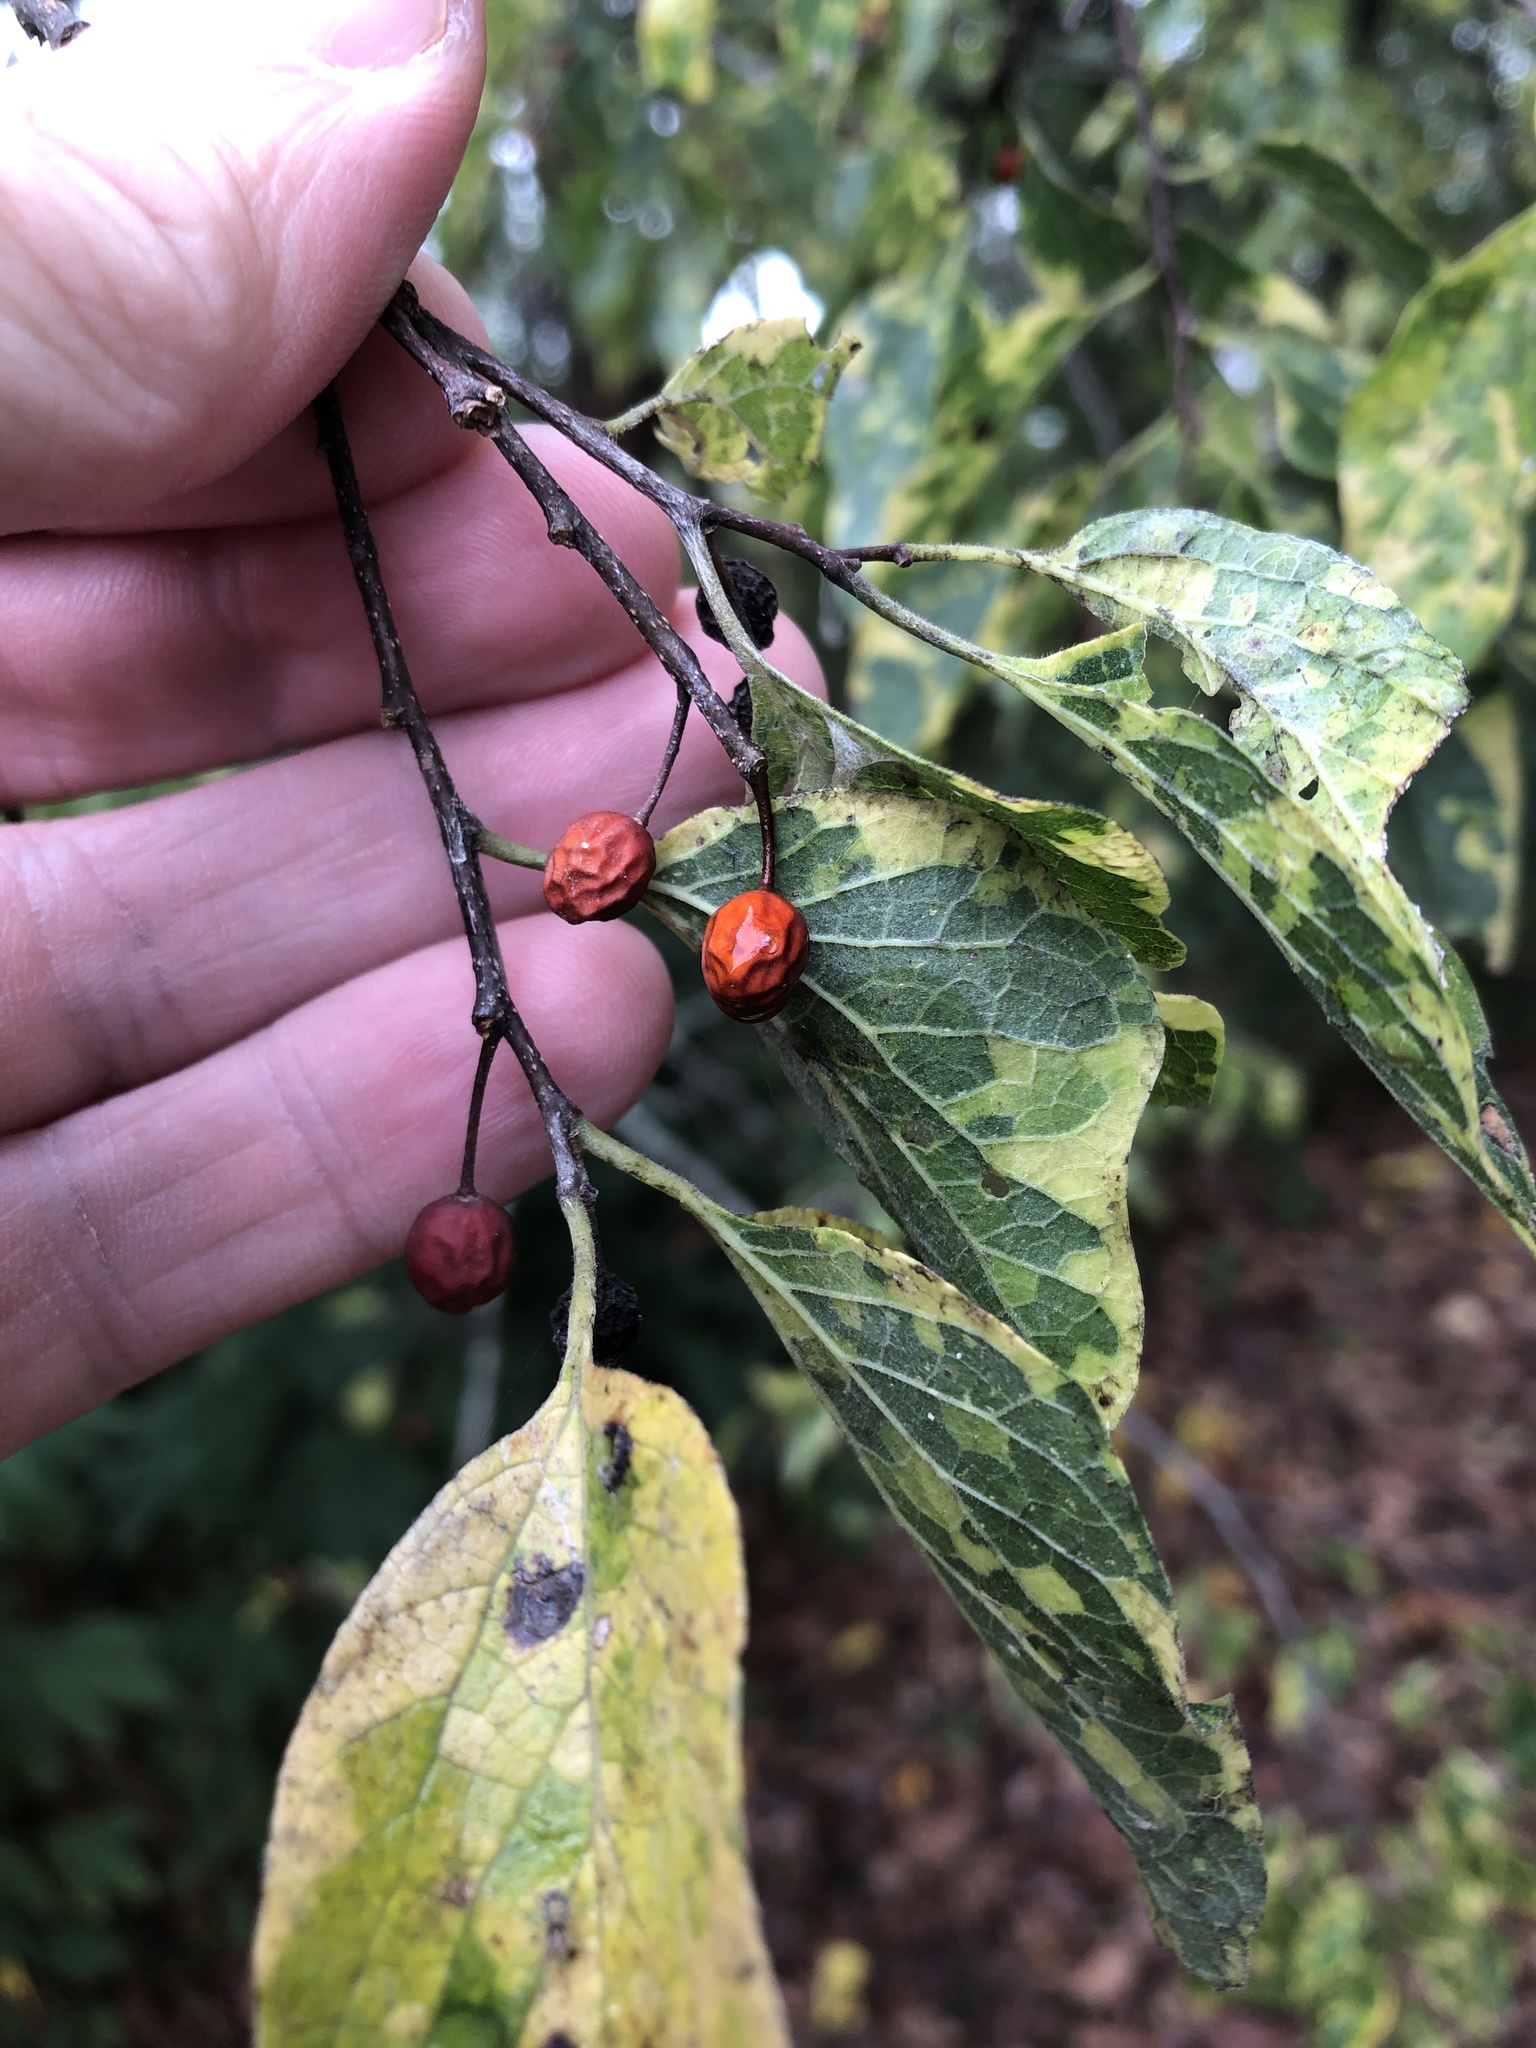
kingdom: Plantae
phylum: Tracheophyta
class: Magnoliopsida
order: Rosales
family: Cannabaceae
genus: Celtis
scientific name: Celtis laevigata
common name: Sugarberry
